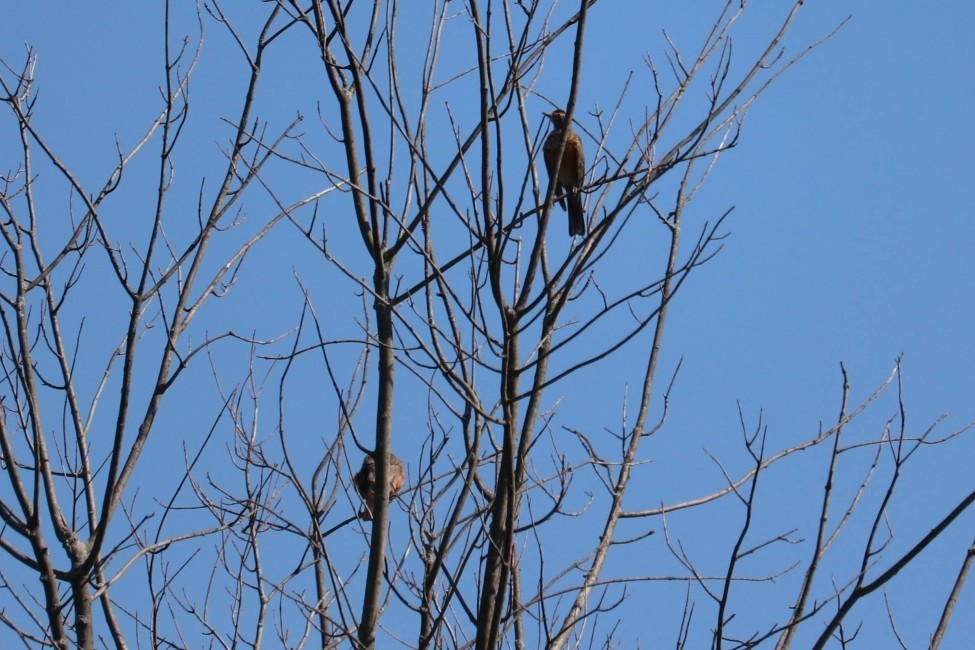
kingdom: Animalia
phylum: Chordata
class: Aves
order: Passeriformes
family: Turdidae
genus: Turdus
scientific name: Turdus migratorius
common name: American robin
